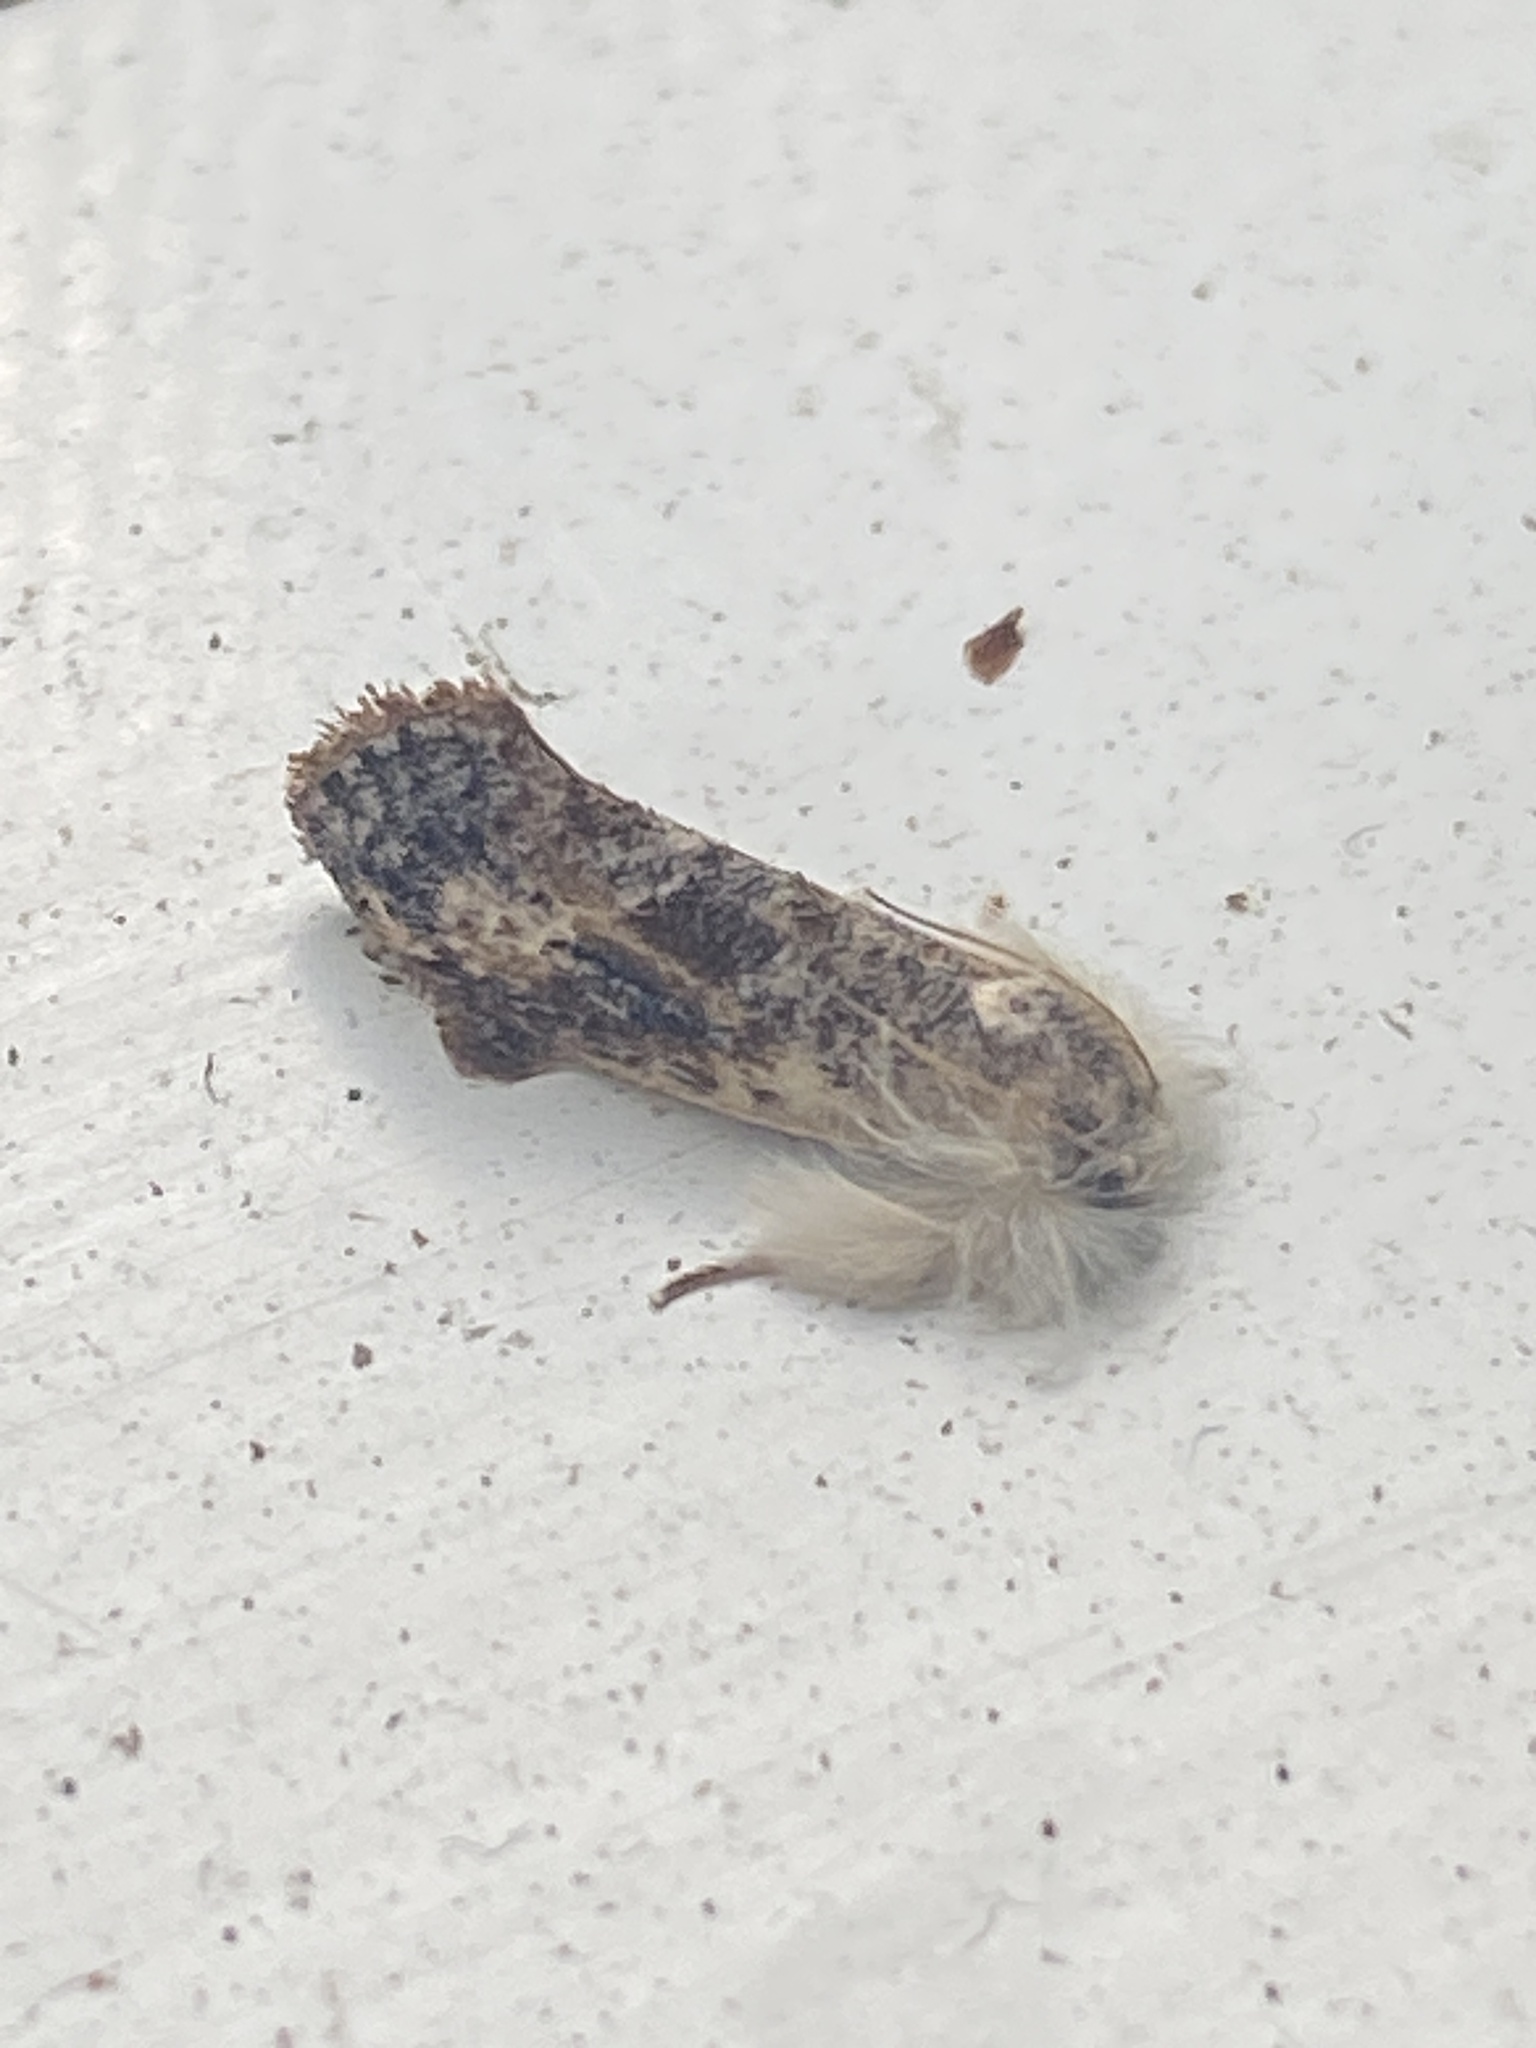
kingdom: Animalia
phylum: Arthropoda
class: Insecta
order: Lepidoptera
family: Tineidae
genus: Acrolophus
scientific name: Acrolophus mycetophagus
